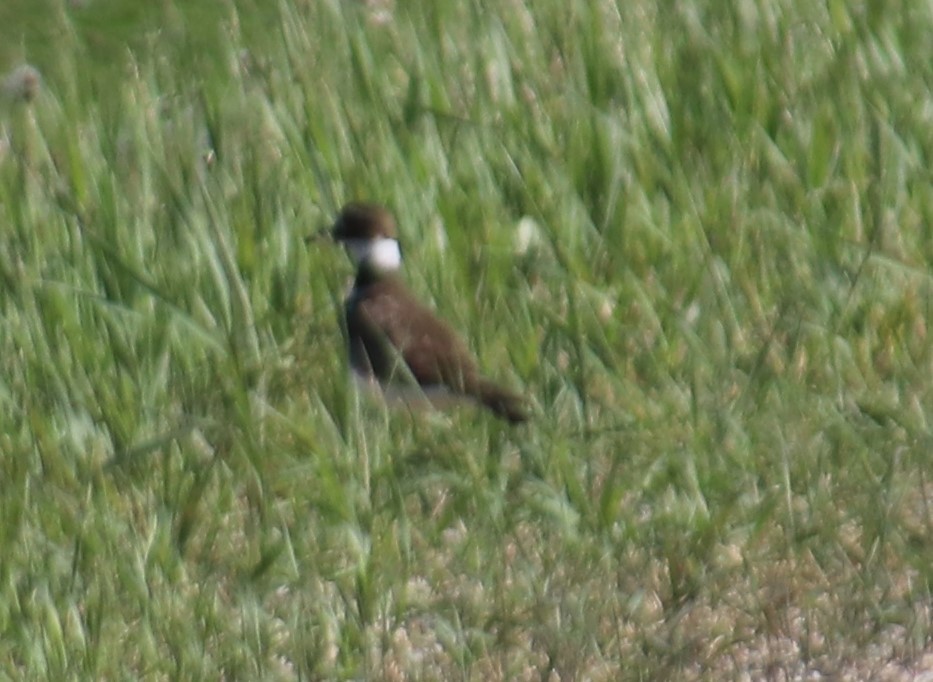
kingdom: Animalia
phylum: Chordata
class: Aves
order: Charadriiformes
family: Charadriidae
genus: Charadrius
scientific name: Charadrius vociferus
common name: Killdeer
